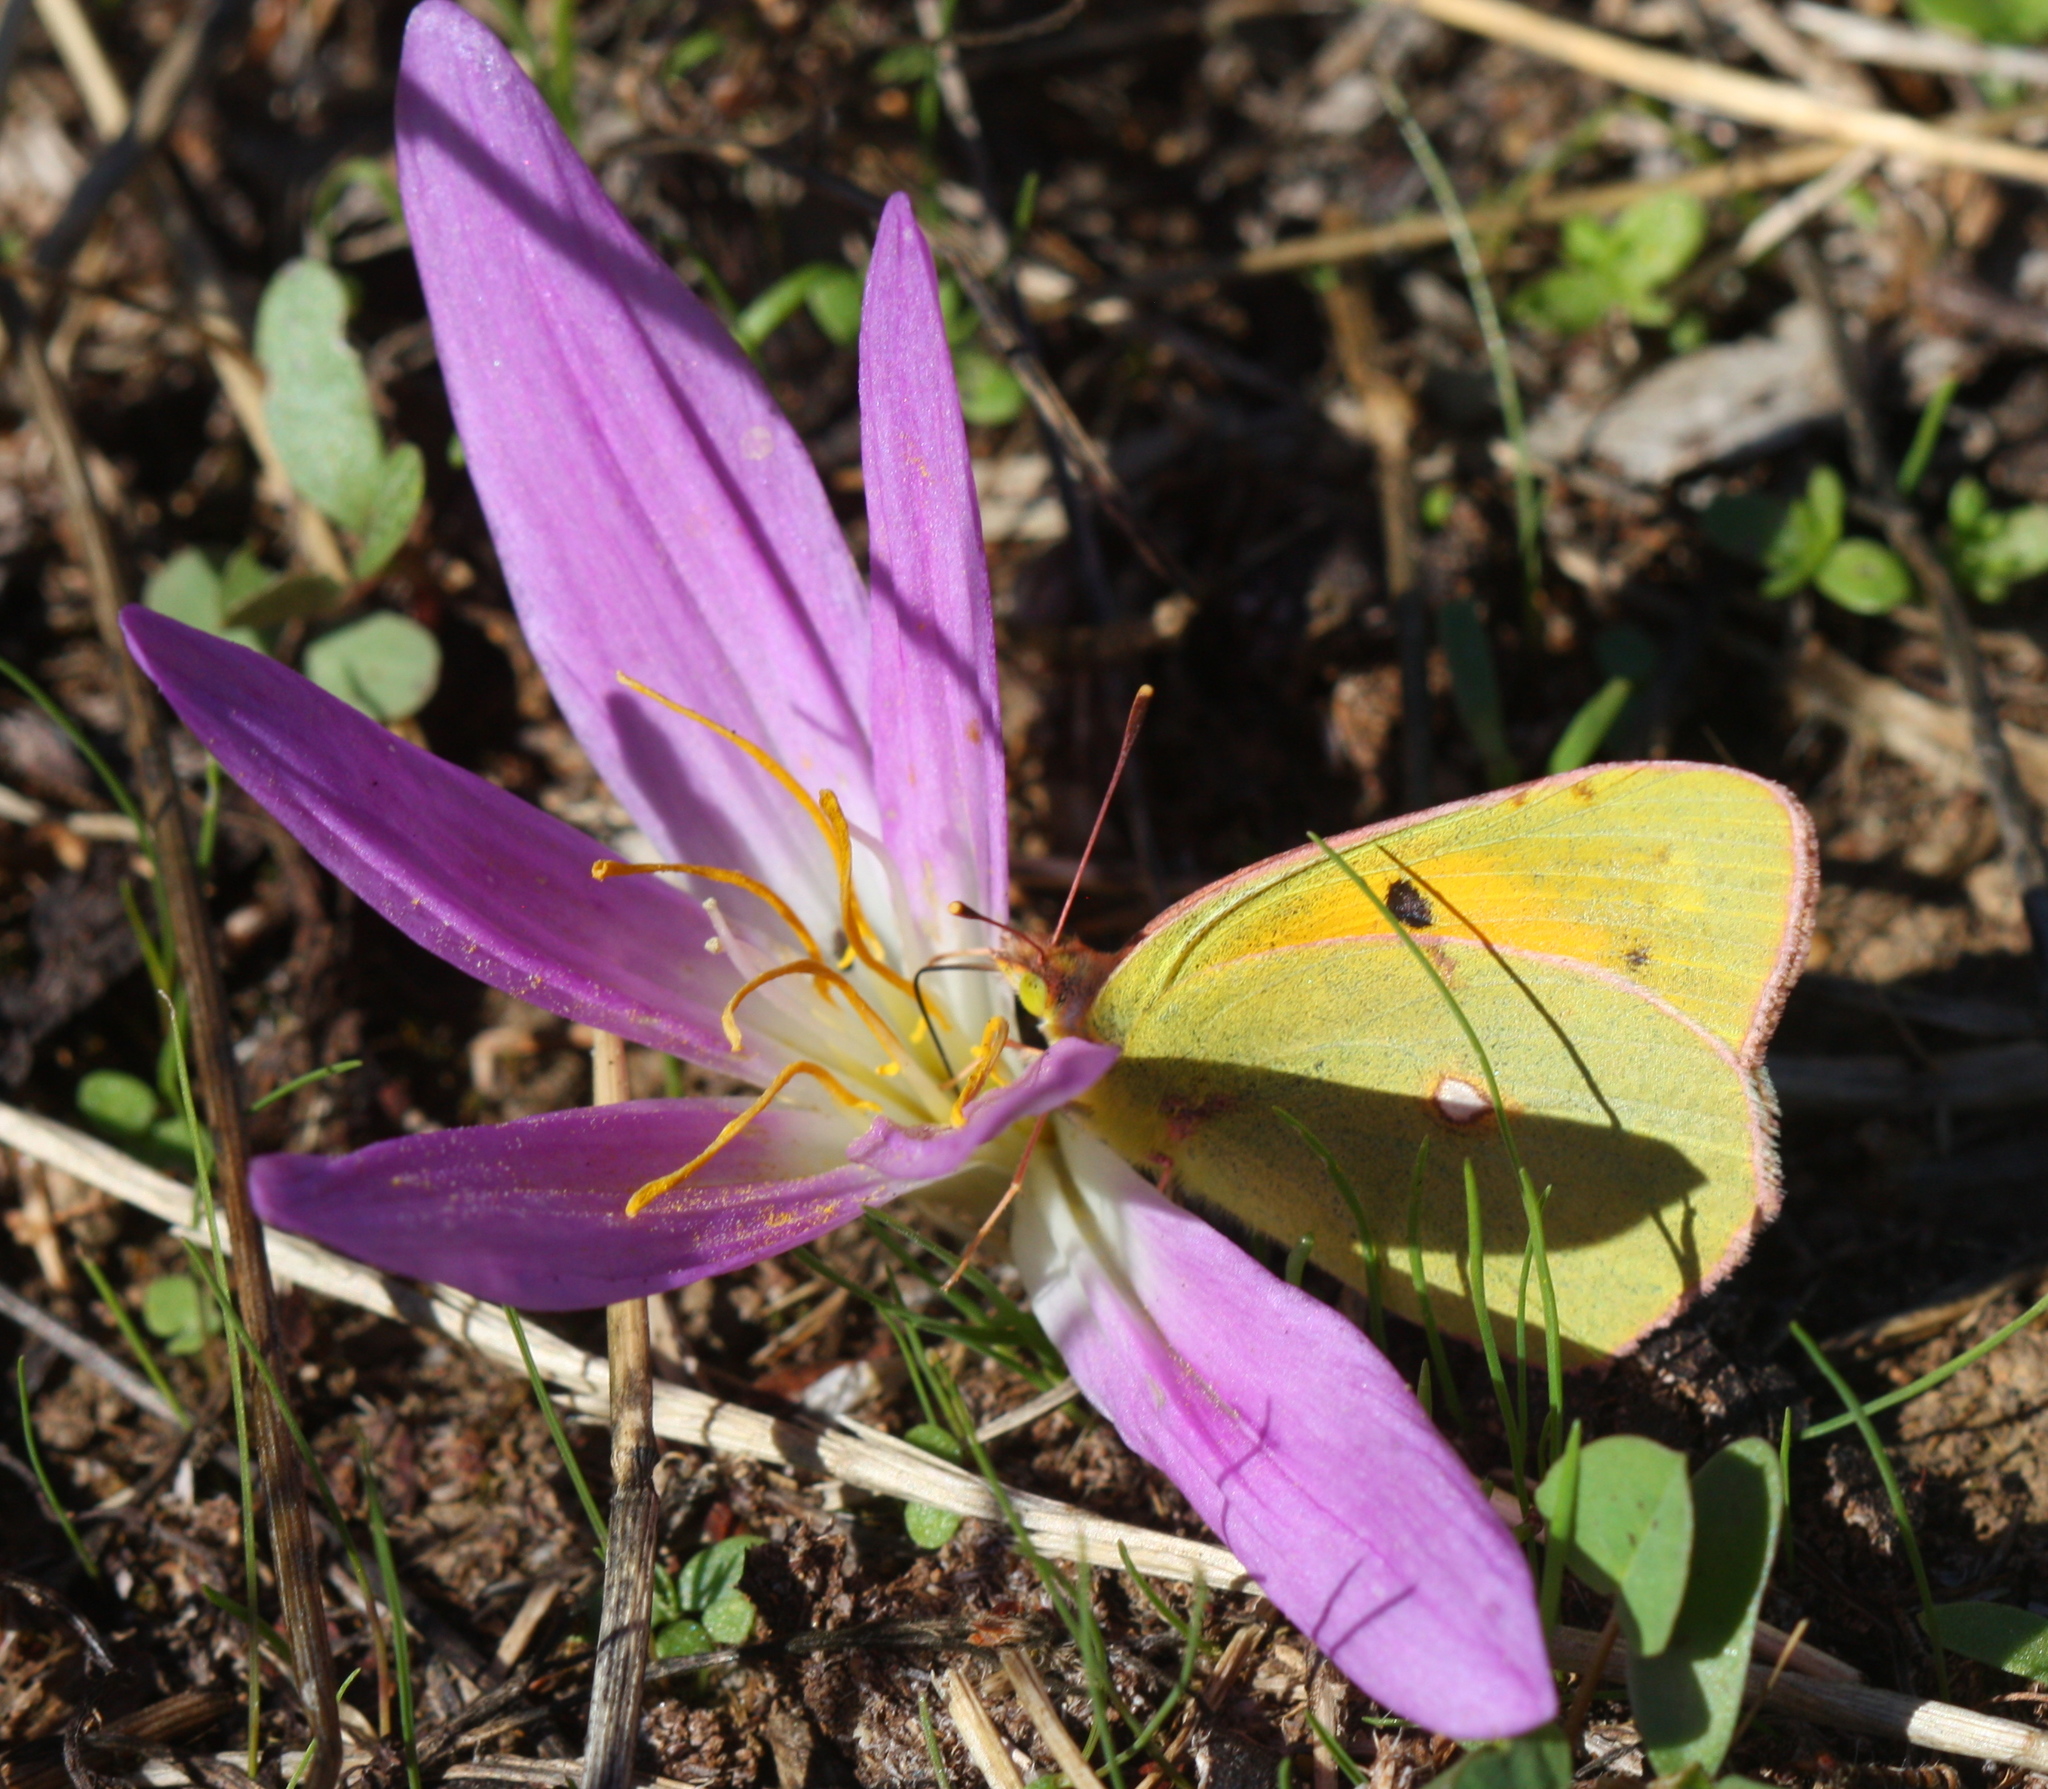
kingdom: Animalia
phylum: Arthropoda
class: Insecta
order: Lepidoptera
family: Pieridae
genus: Colias
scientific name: Colias croceus
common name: Clouded yellow
